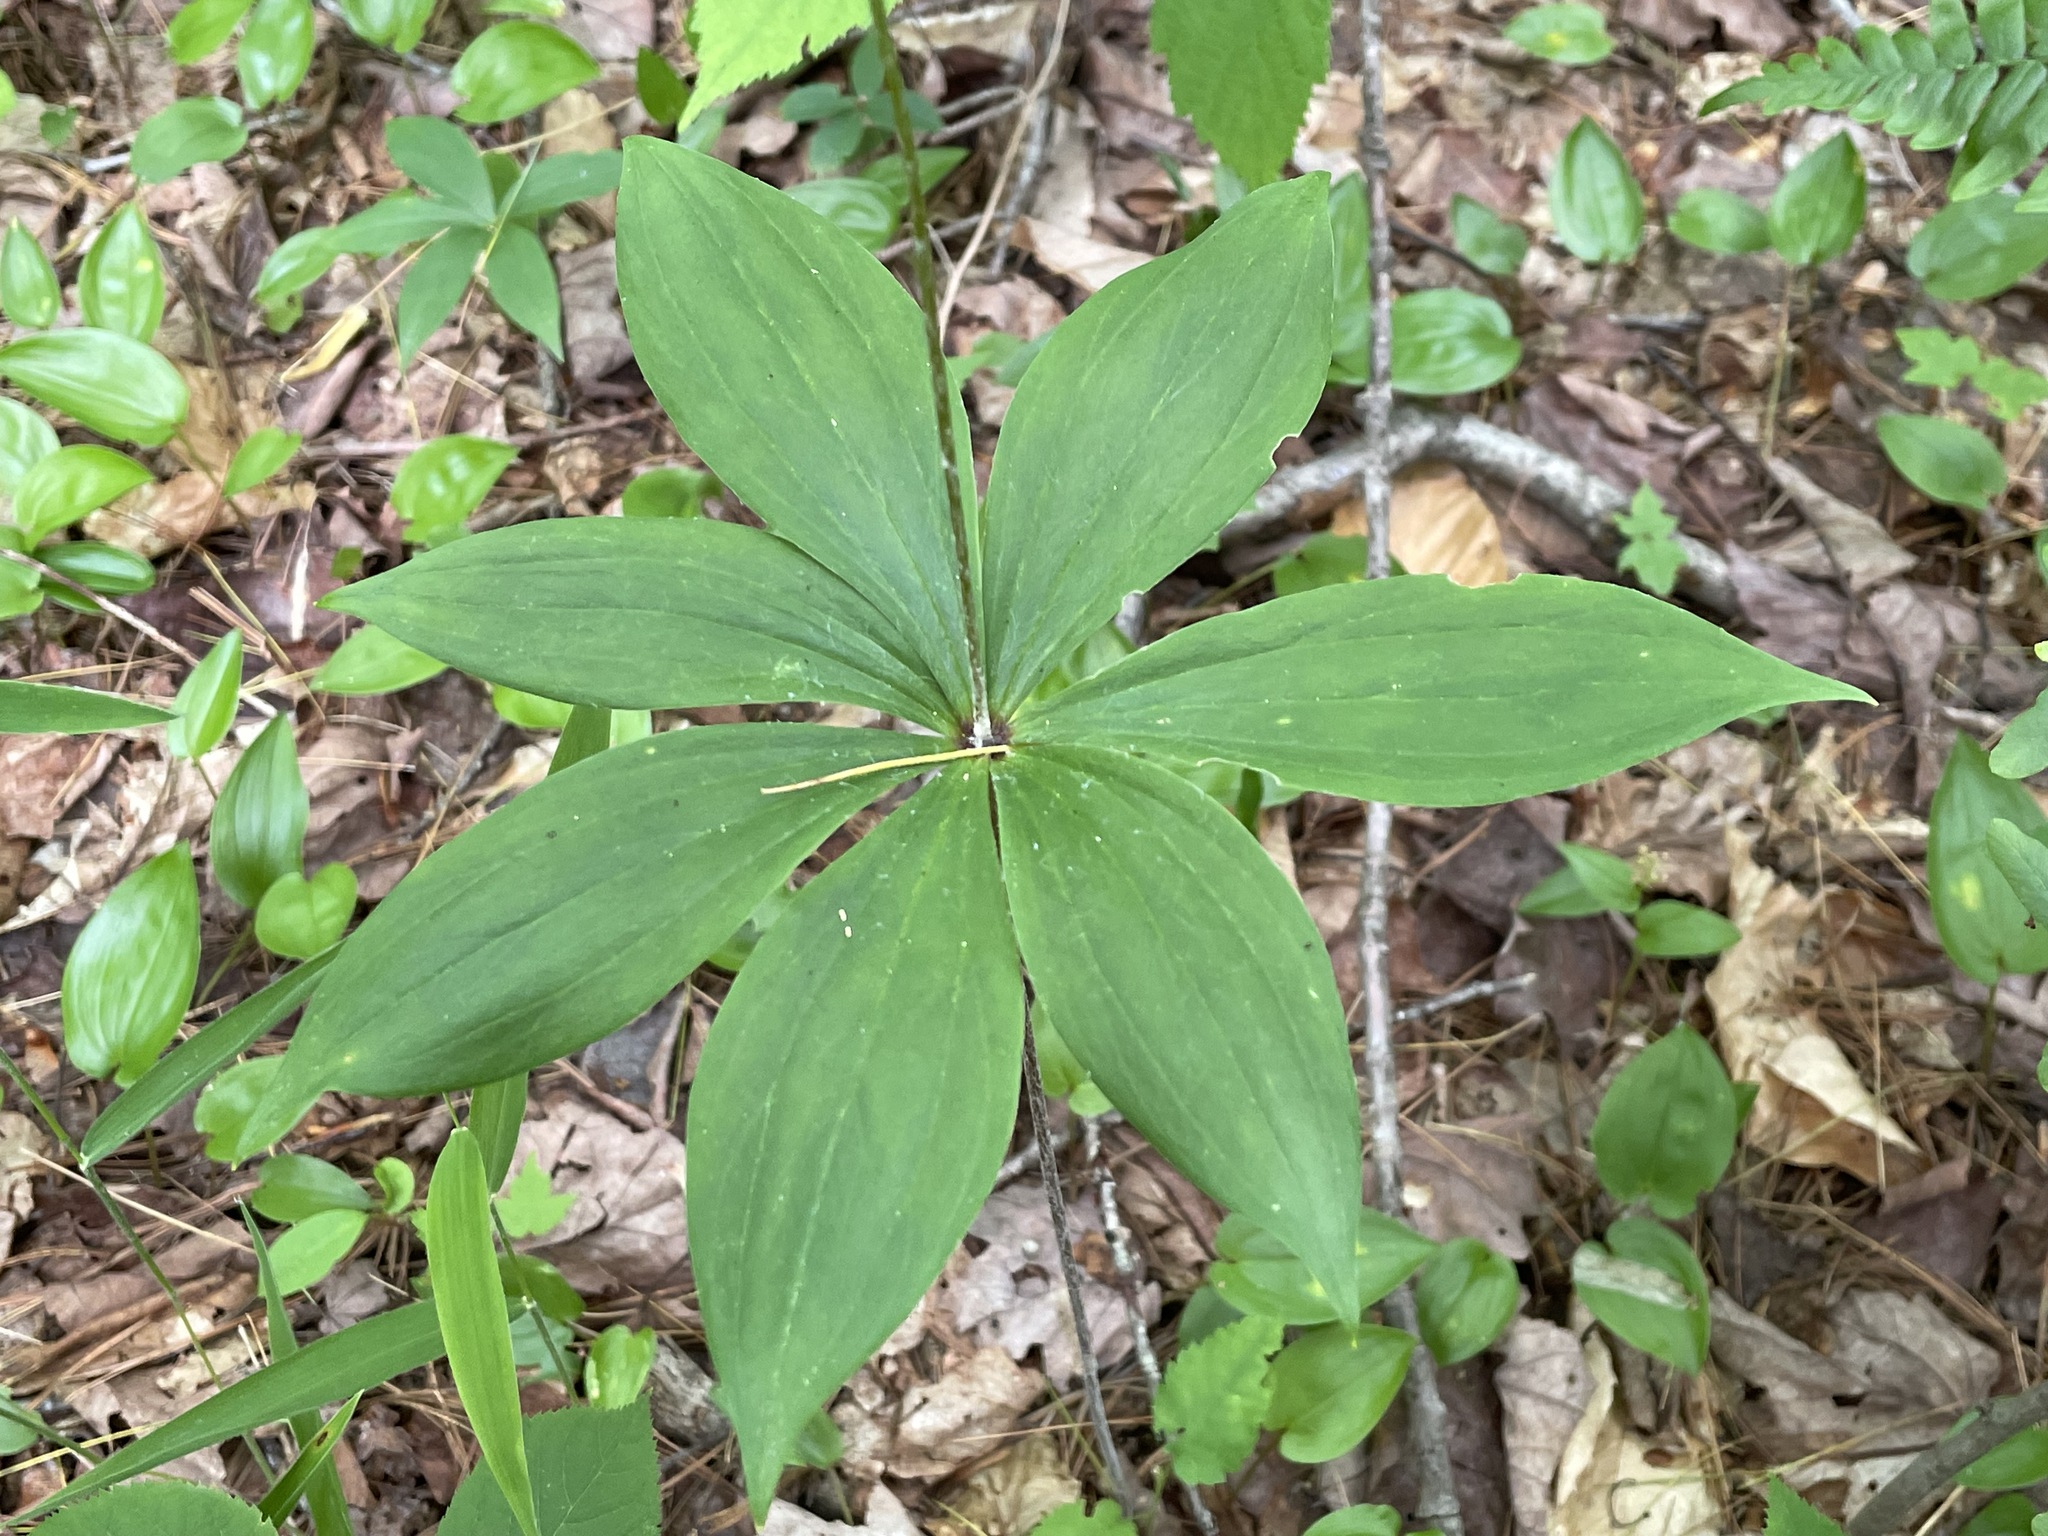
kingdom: Plantae
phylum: Tracheophyta
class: Liliopsida
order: Liliales
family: Liliaceae
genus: Medeola
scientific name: Medeola virginiana
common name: Indian cucumber-root
